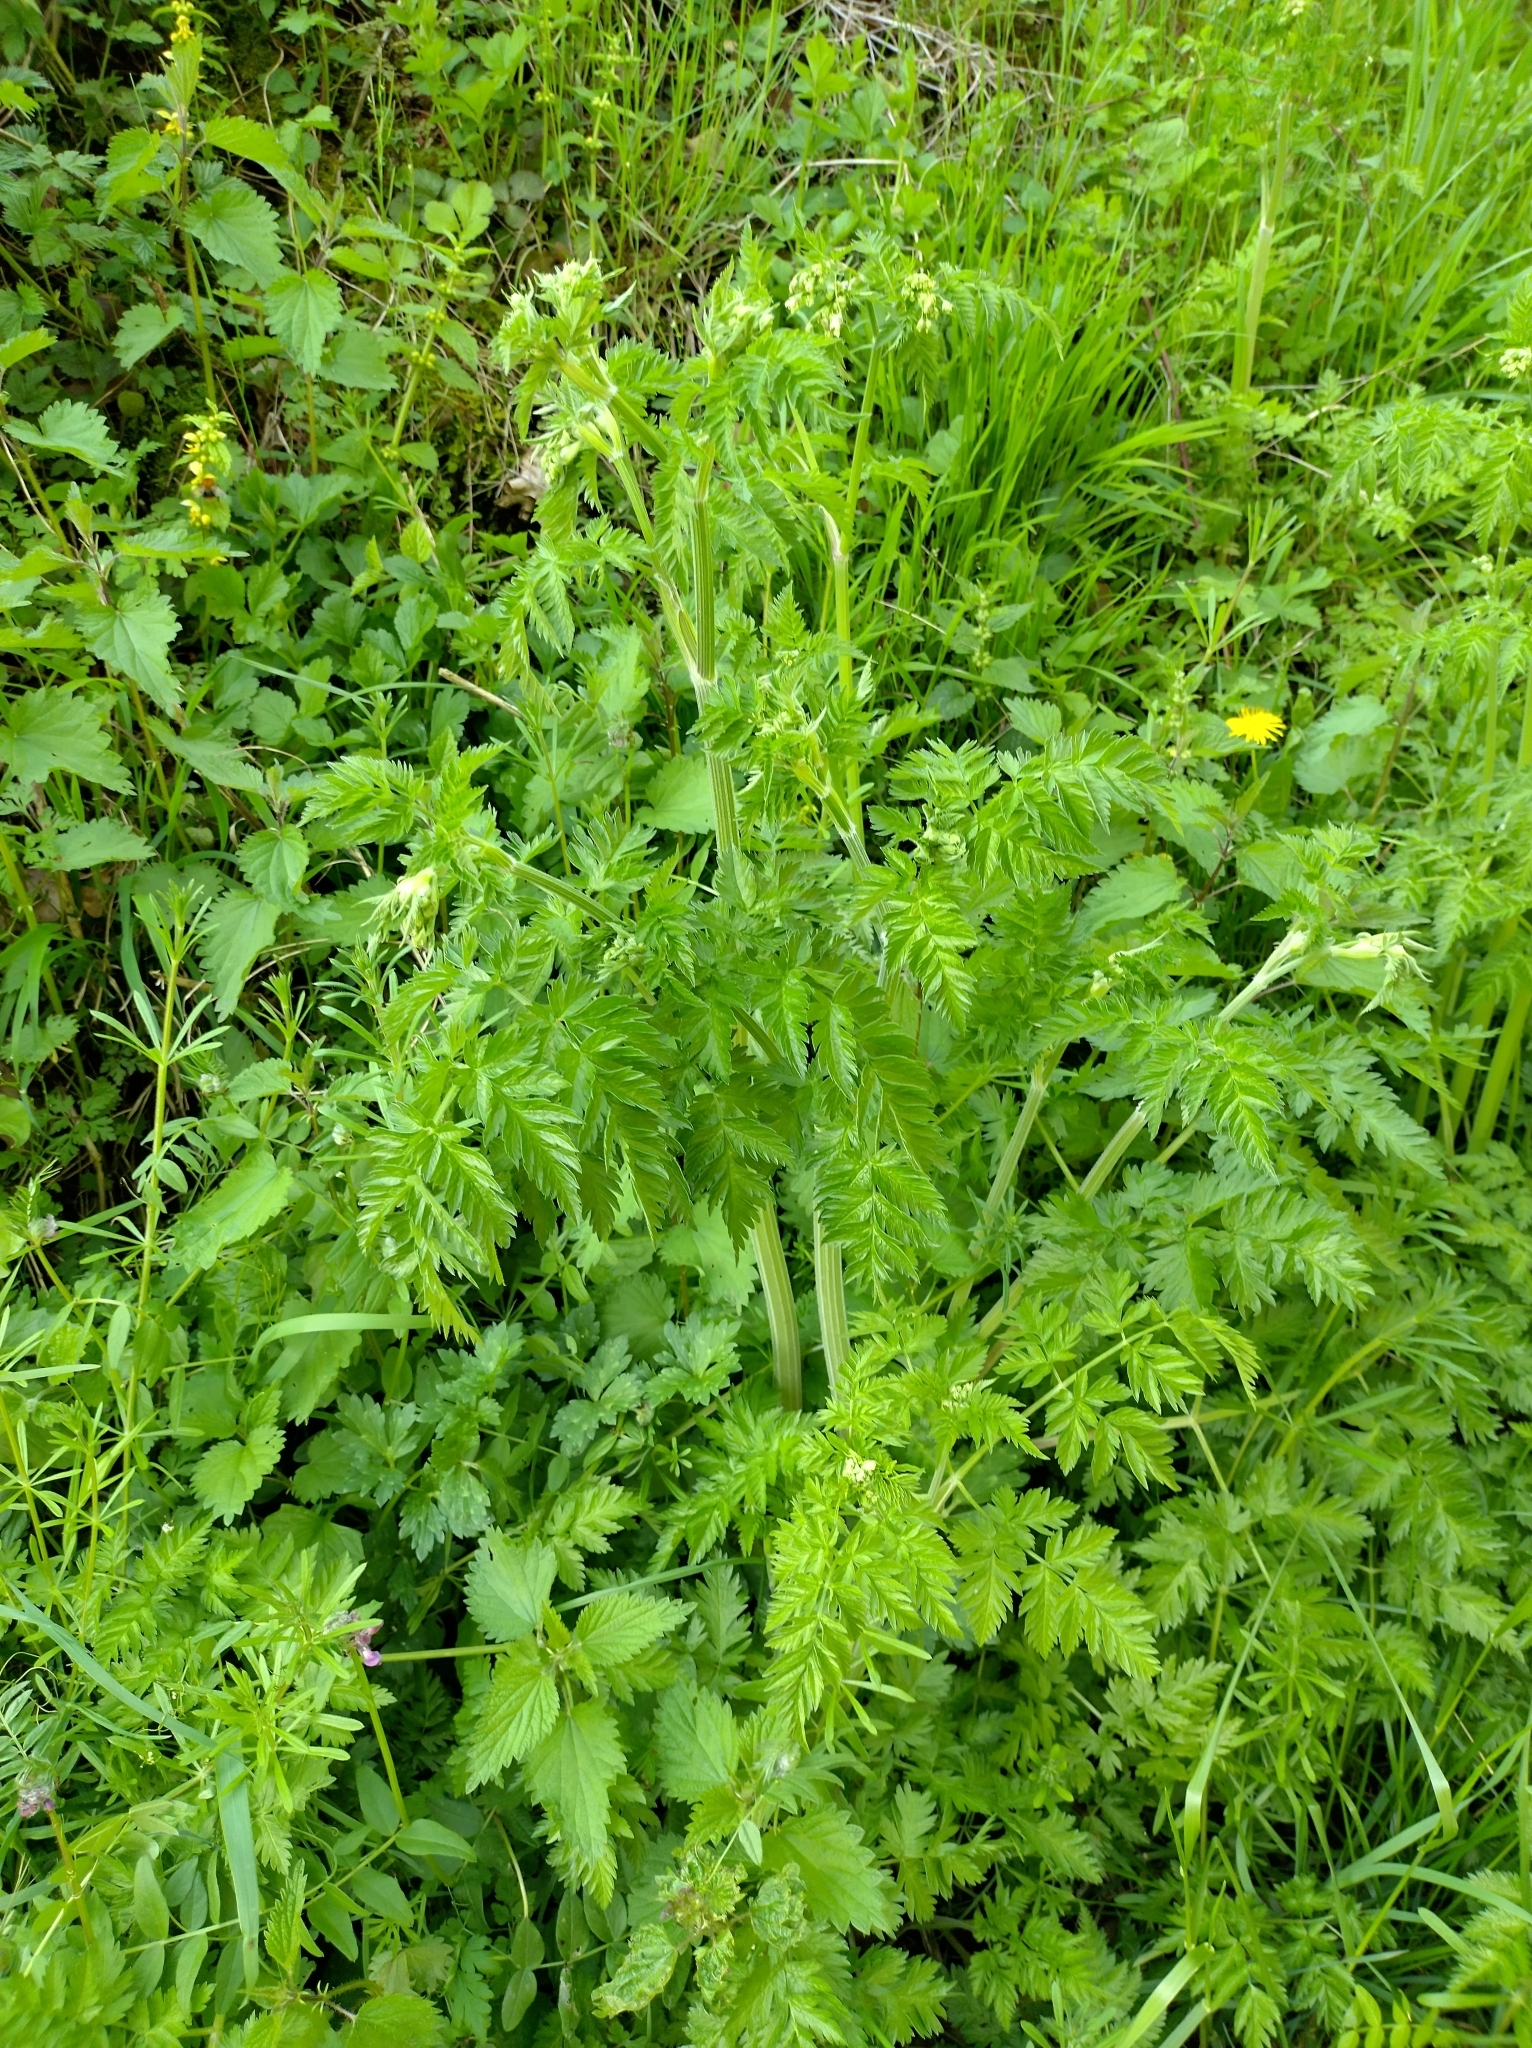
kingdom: Plantae
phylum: Tracheophyta
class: Magnoliopsida
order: Apiales
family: Apiaceae
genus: Anthriscus
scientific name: Anthriscus sylvestris
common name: Cow parsley
